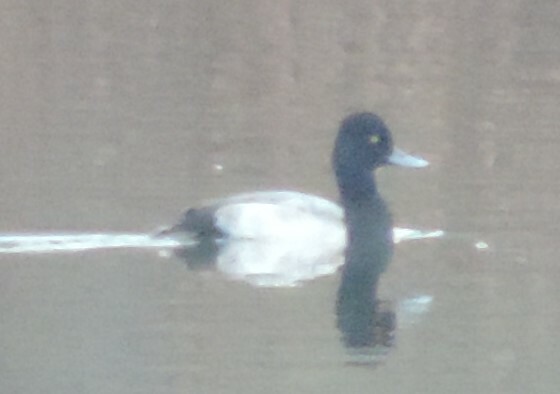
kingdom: Animalia
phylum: Chordata
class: Aves
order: Anseriformes
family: Anatidae
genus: Aythya
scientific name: Aythya affinis
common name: Lesser scaup
